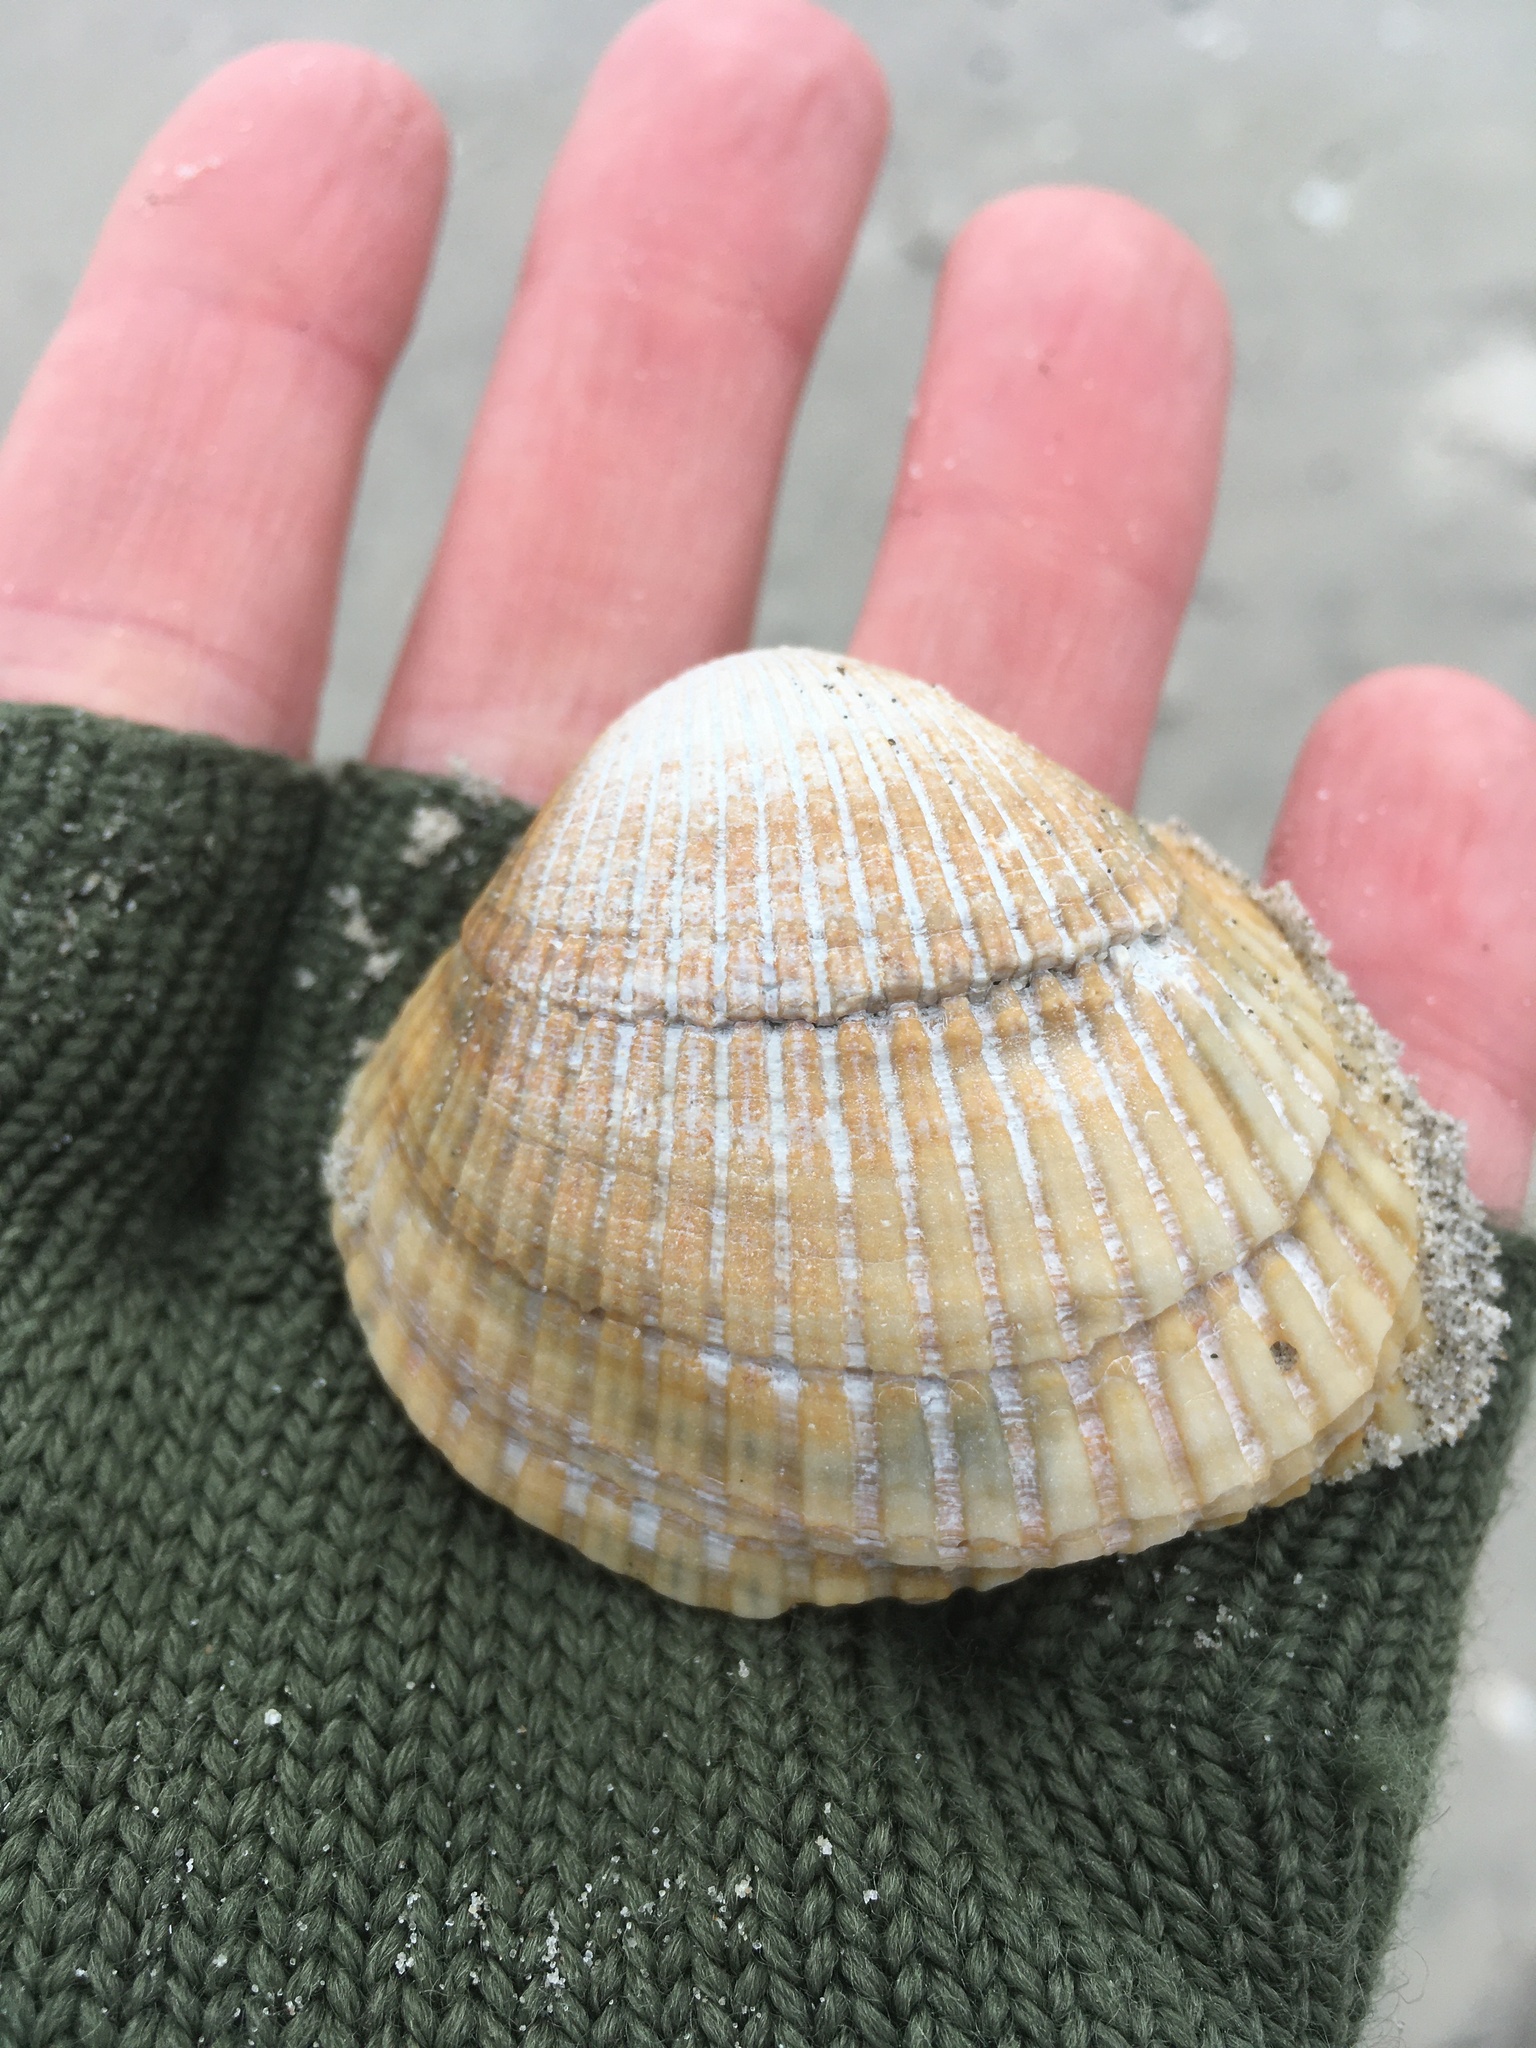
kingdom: Animalia
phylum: Mollusca
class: Bivalvia
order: Arcida
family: Arcidae
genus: Lunarca
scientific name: Lunarca ovalis
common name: Blood ark
